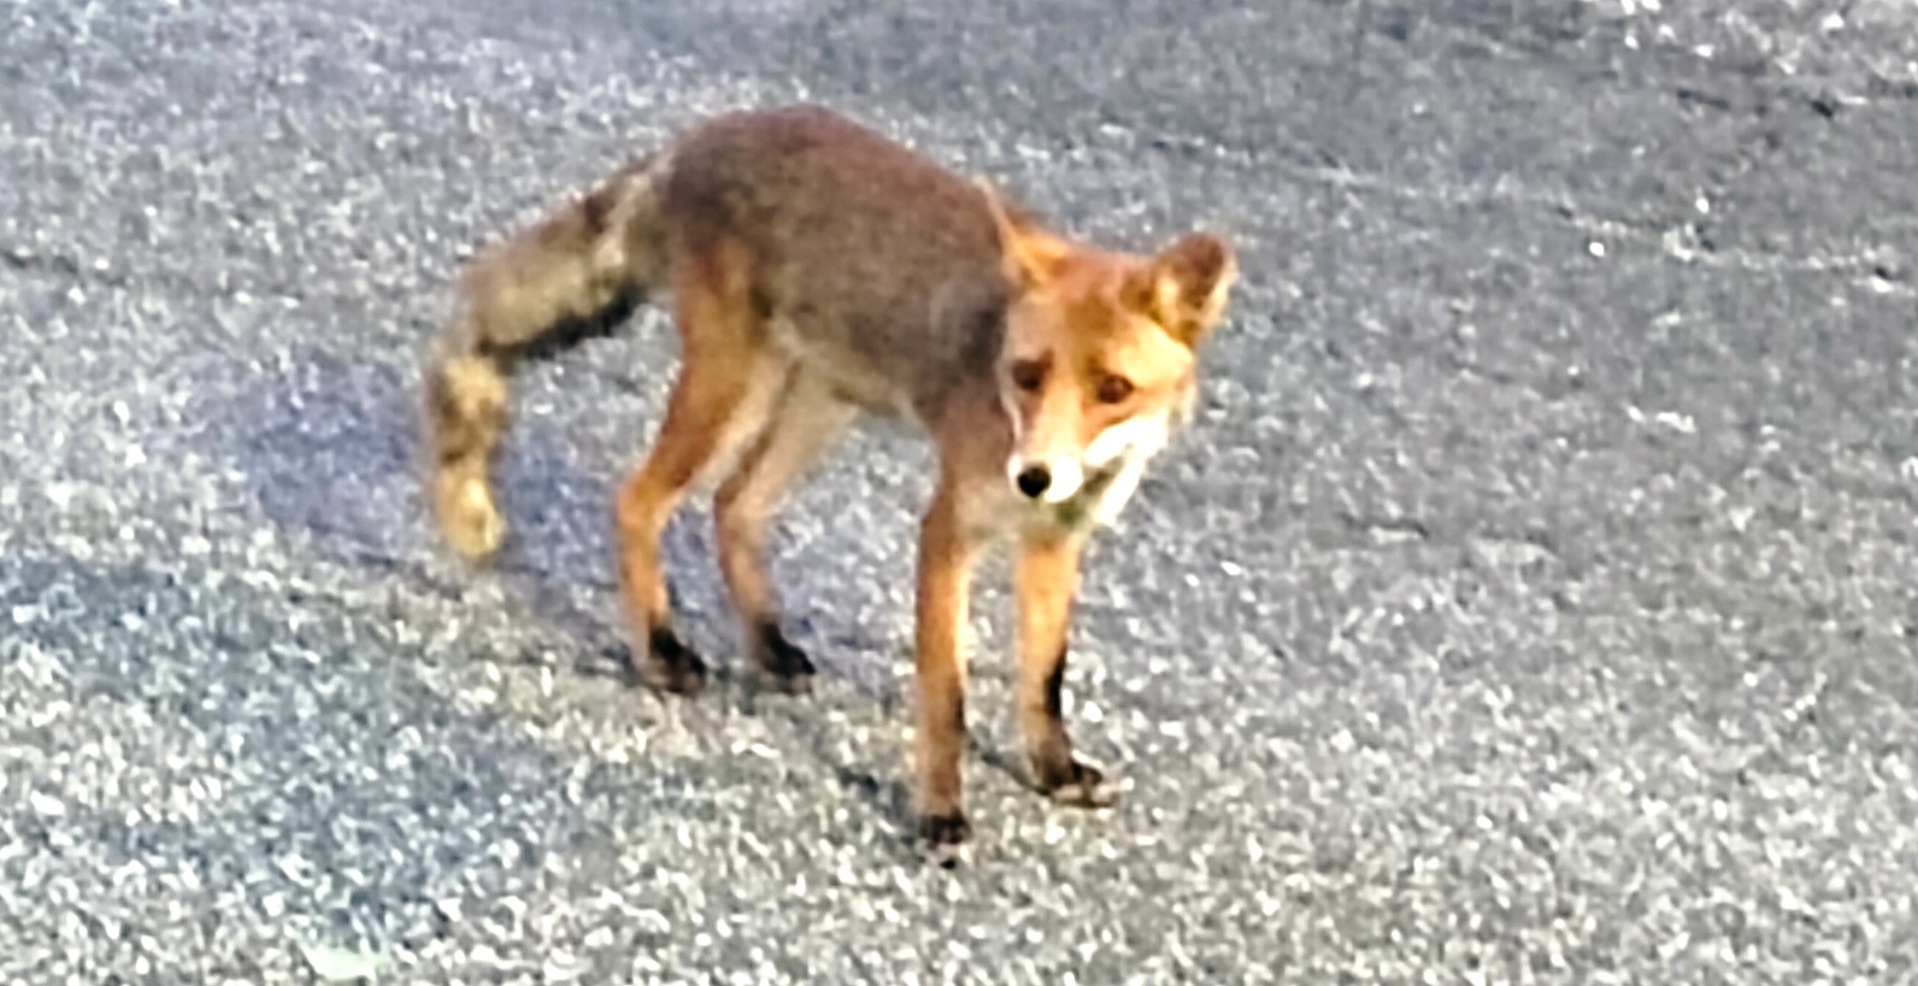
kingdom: Animalia
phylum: Chordata
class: Mammalia
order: Carnivora
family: Canidae
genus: Vulpes
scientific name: Vulpes vulpes
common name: Red fox
